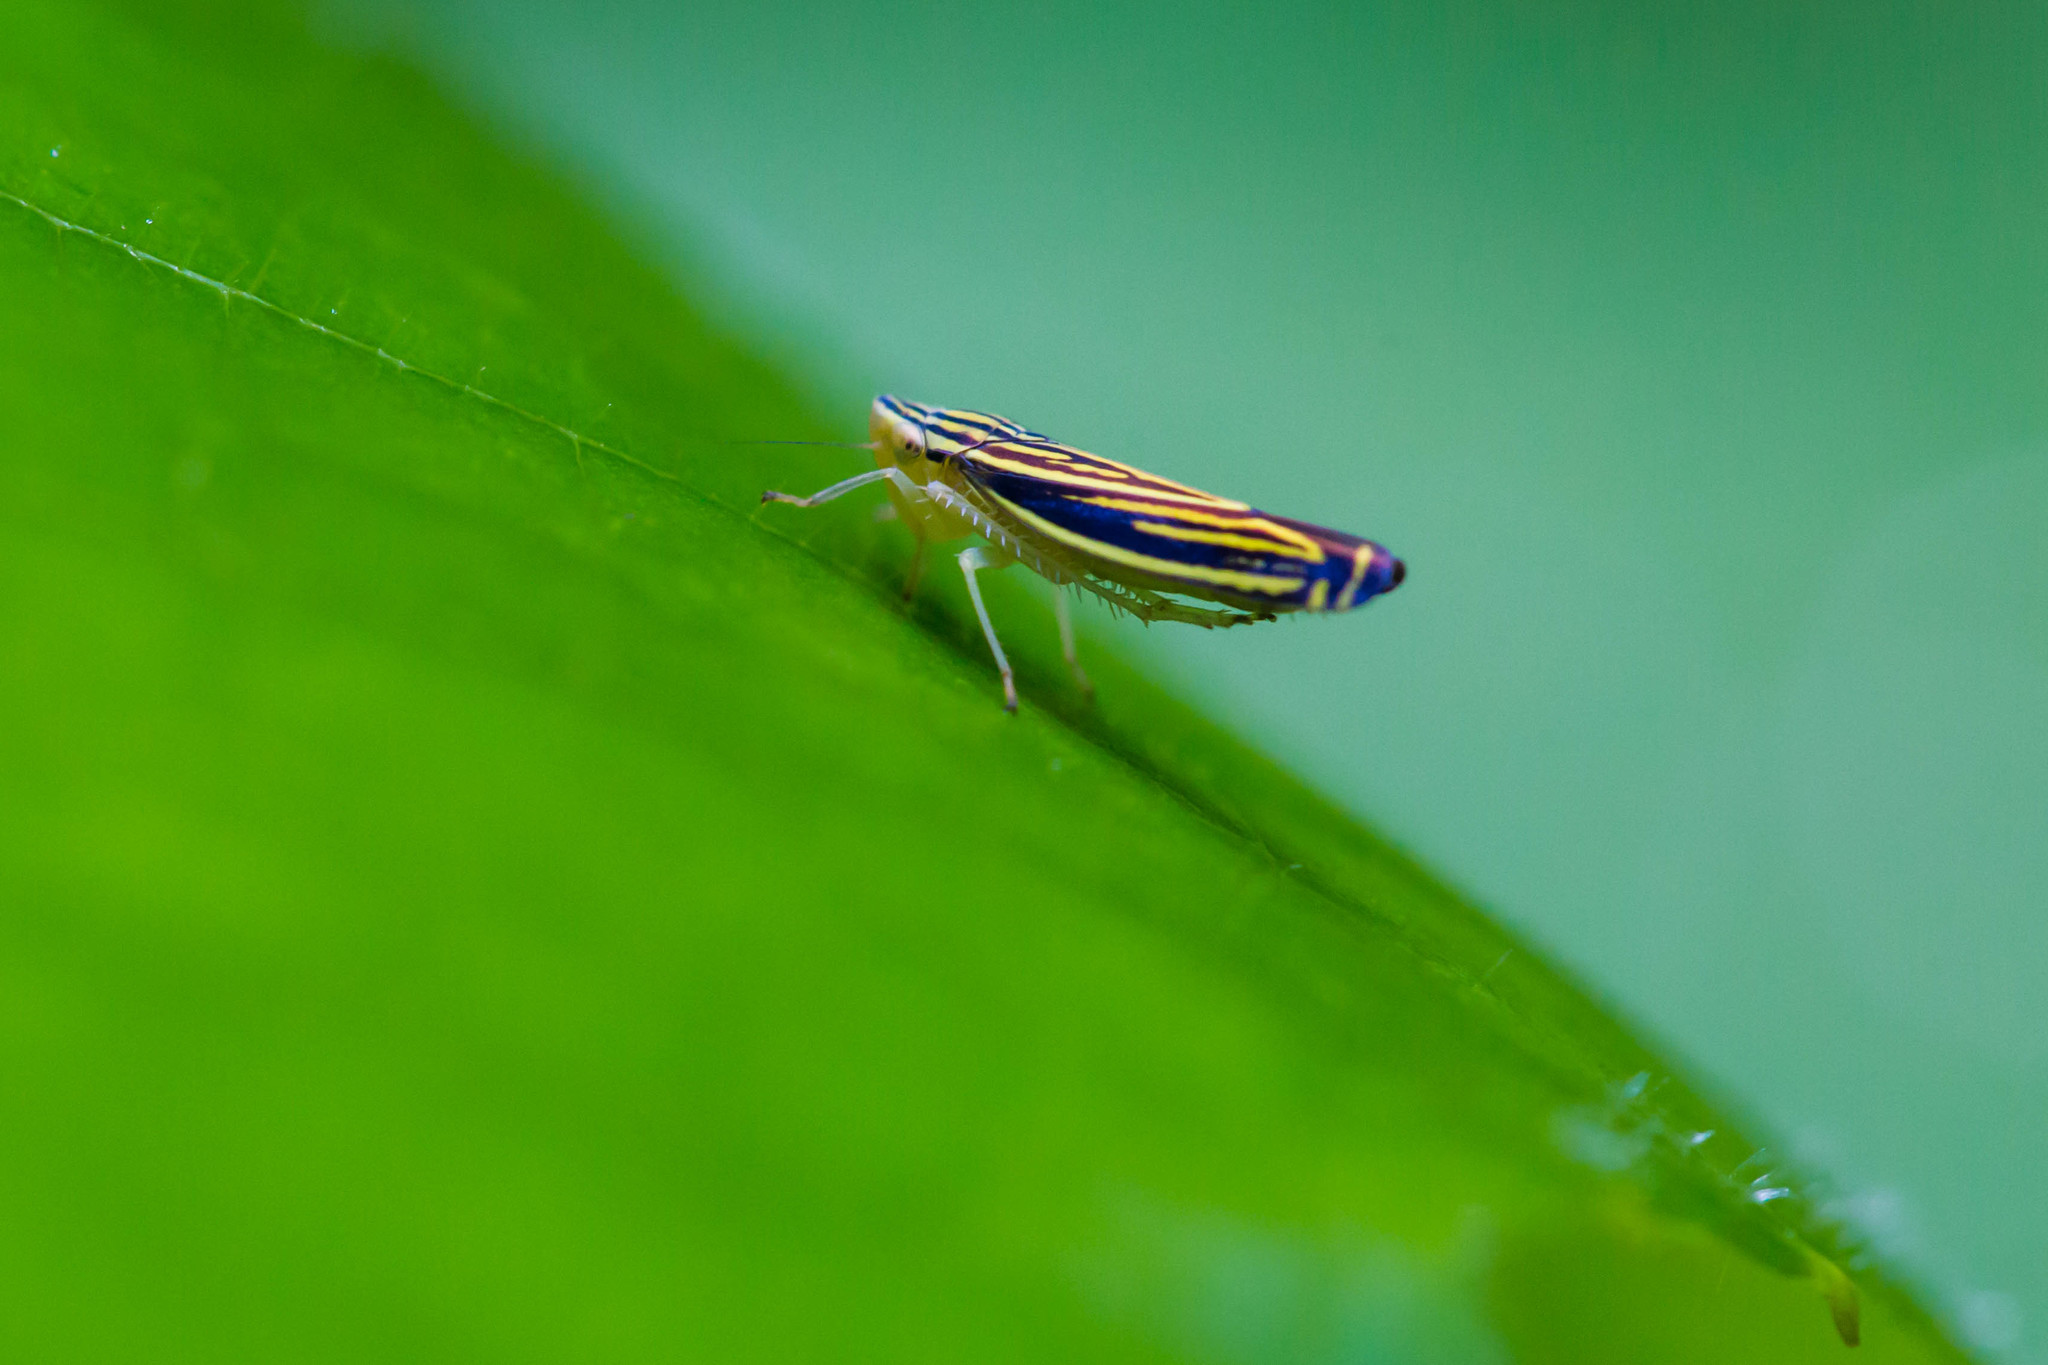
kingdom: Animalia
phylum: Arthropoda
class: Insecta
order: Hemiptera
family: Cicadellidae
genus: Sibovia
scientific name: Sibovia occatoria
